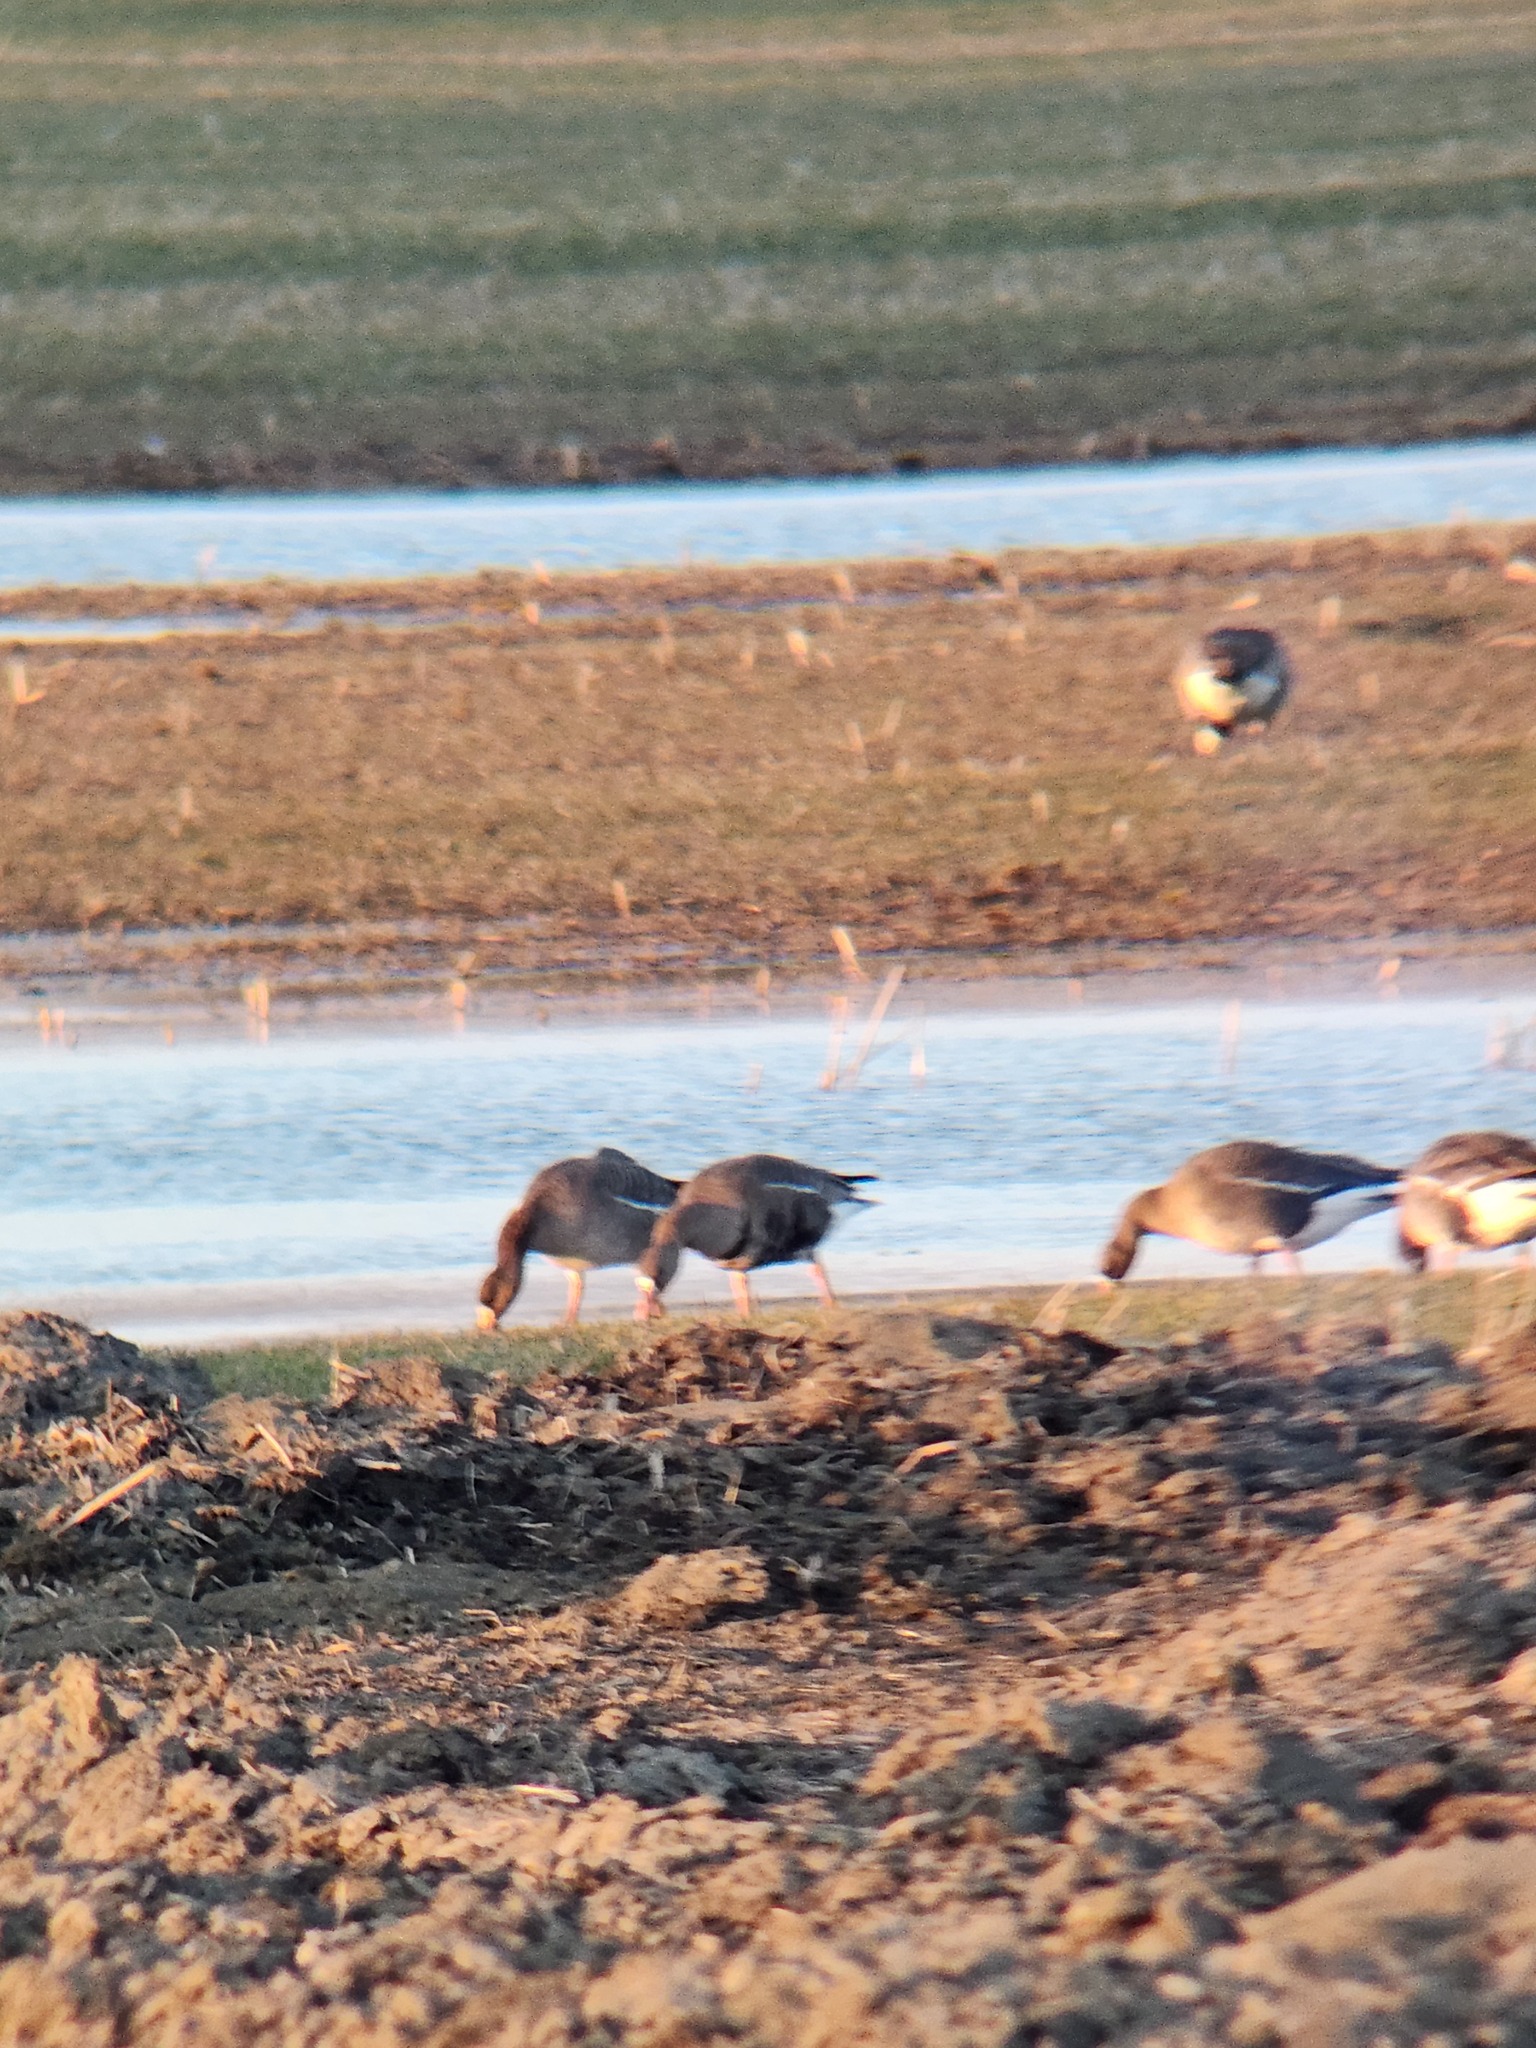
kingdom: Animalia
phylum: Chordata
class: Aves
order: Anseriformes
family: Anatidae
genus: Anser
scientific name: Anser albifrons
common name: Greater white-fronted goose
